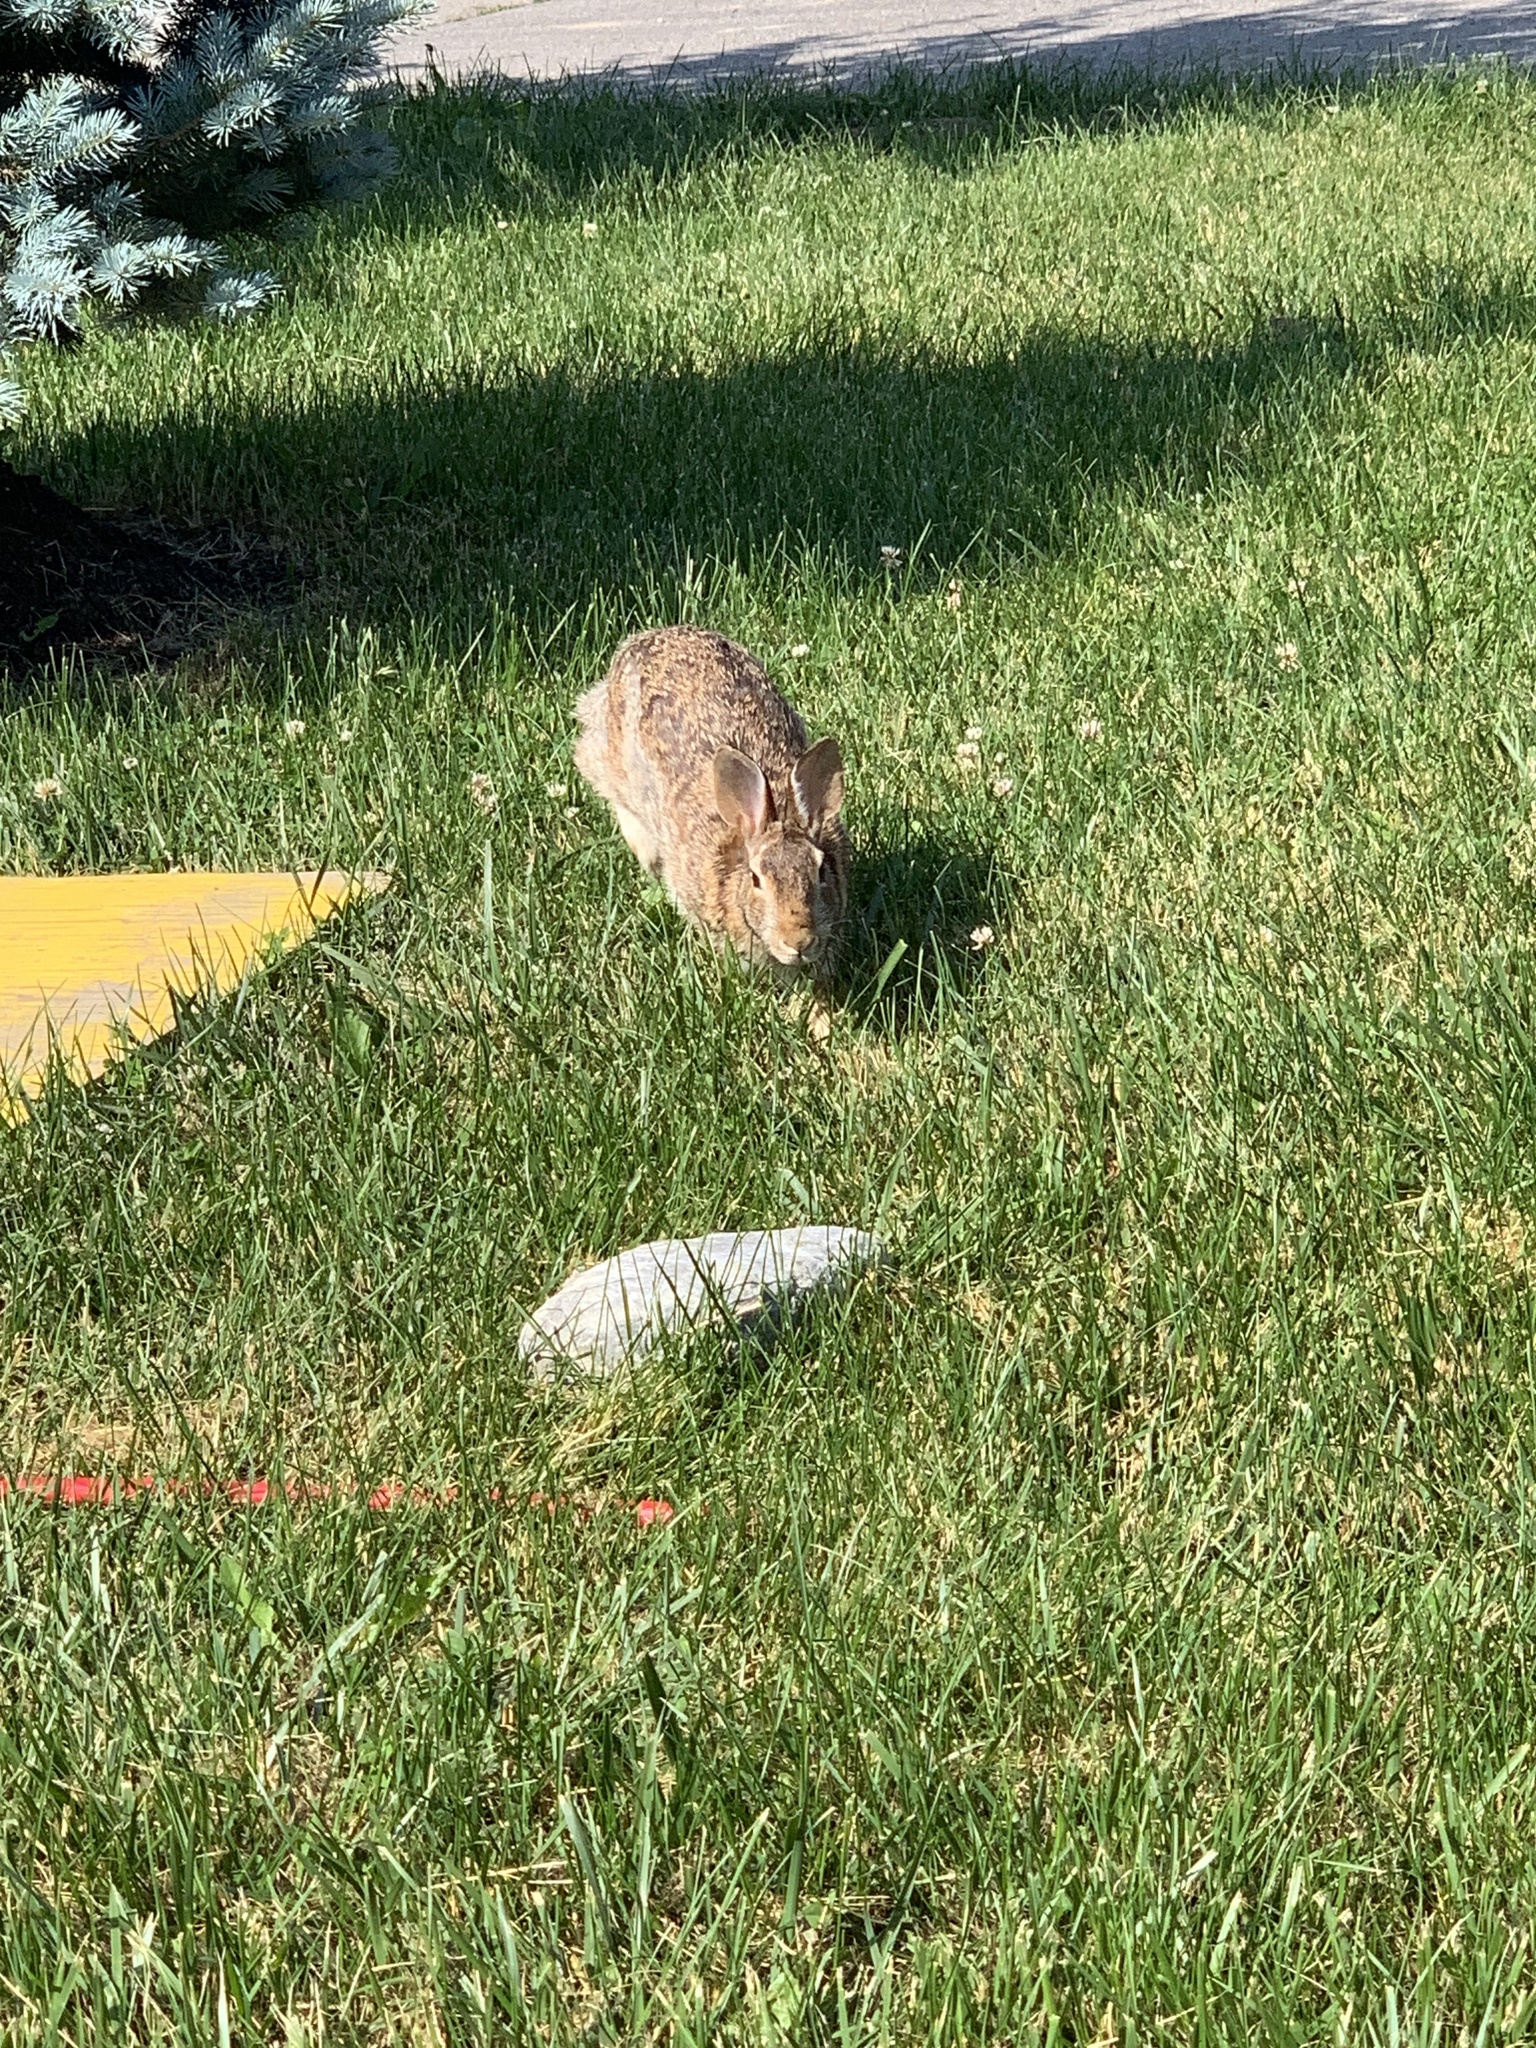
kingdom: Animalia
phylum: Chordata
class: Mammalia
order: Lagomorpha
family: Leporidae
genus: Sylvilagus
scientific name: Sylvilagus floridanus
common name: Eastern cottontail
